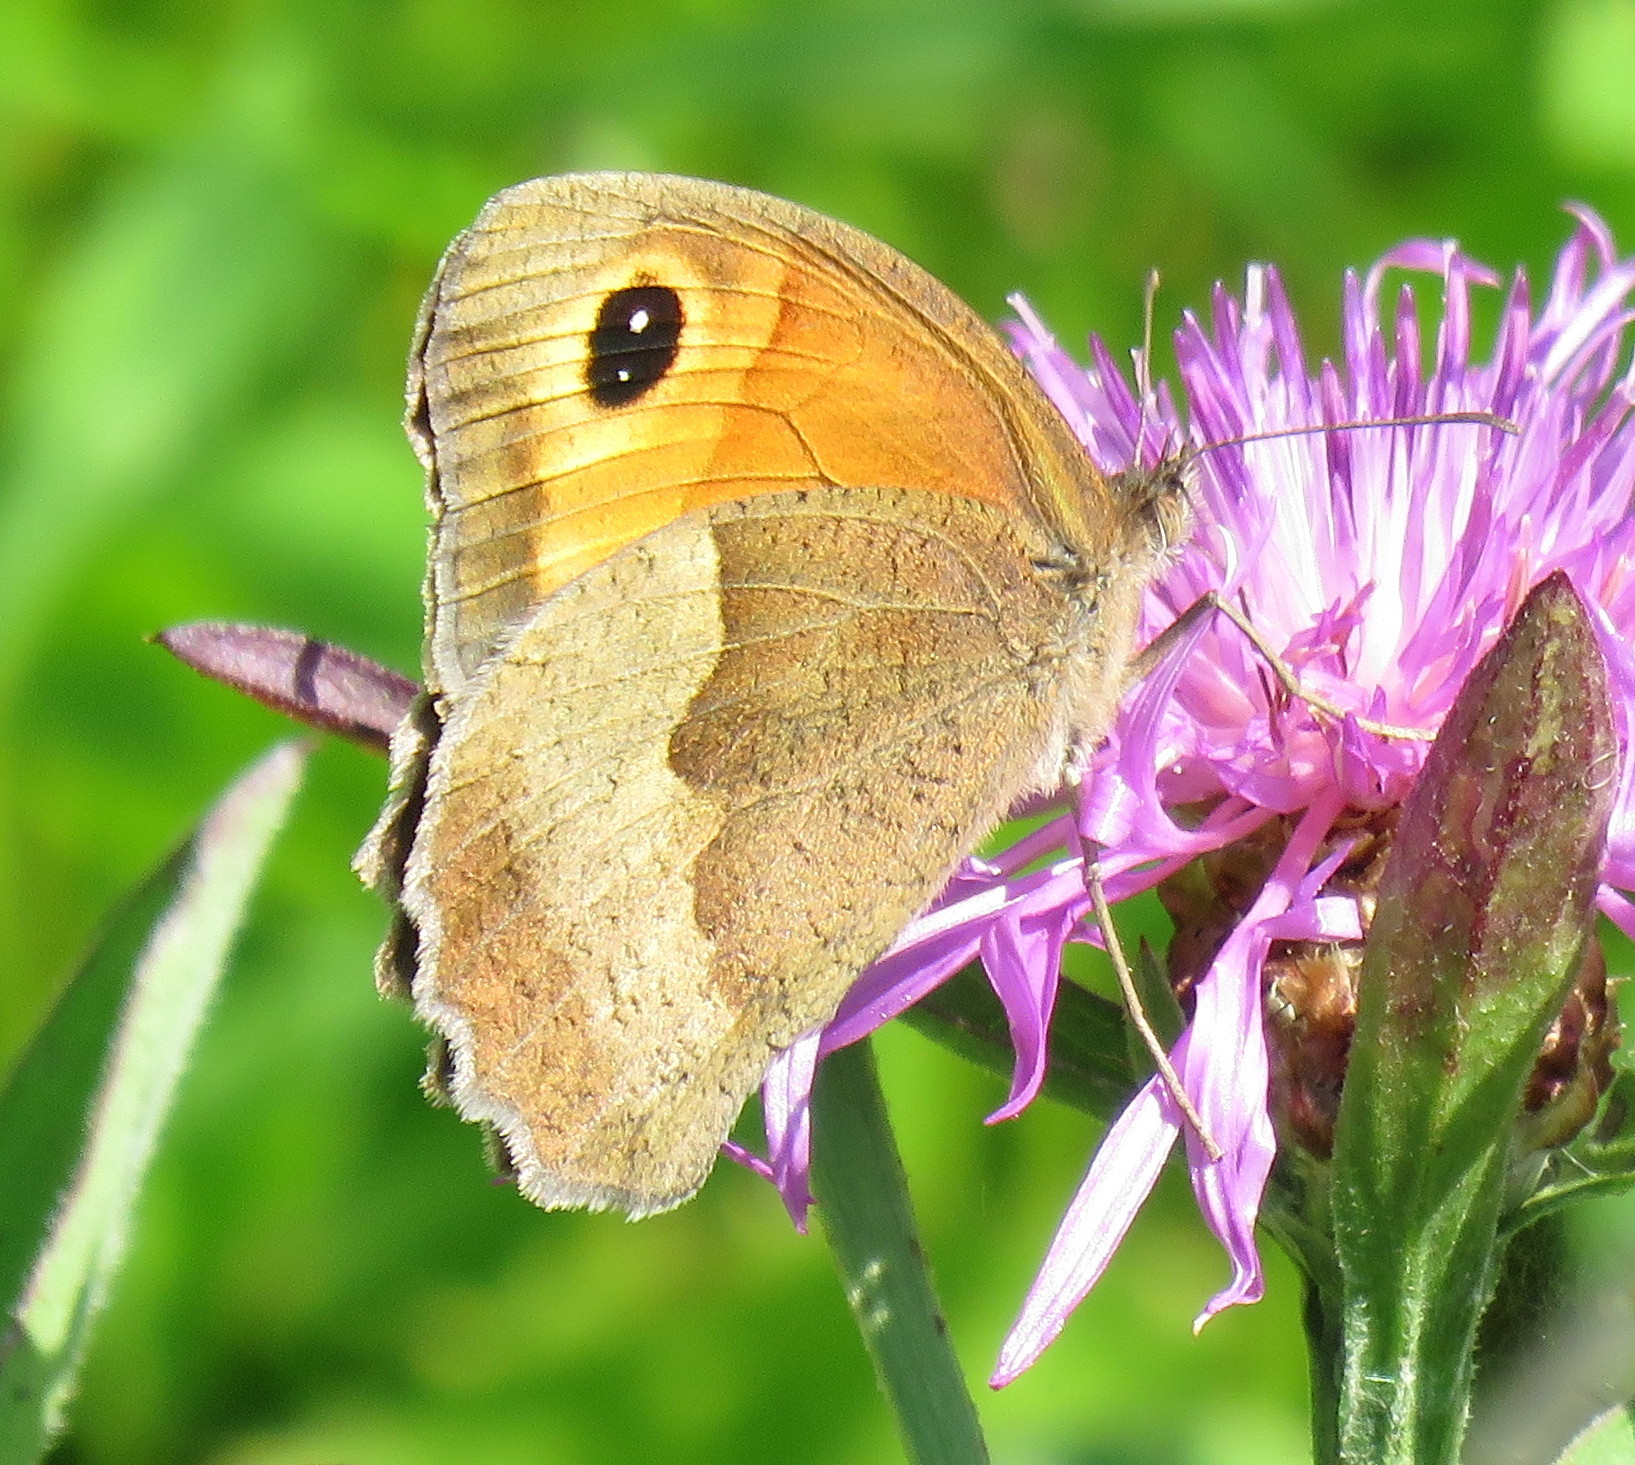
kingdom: Animalia
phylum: Arthropoda
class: Insecta
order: Lepidoptera
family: Nymphalidae
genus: Maniola
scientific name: Maniola jurtina
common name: Meadow brown
